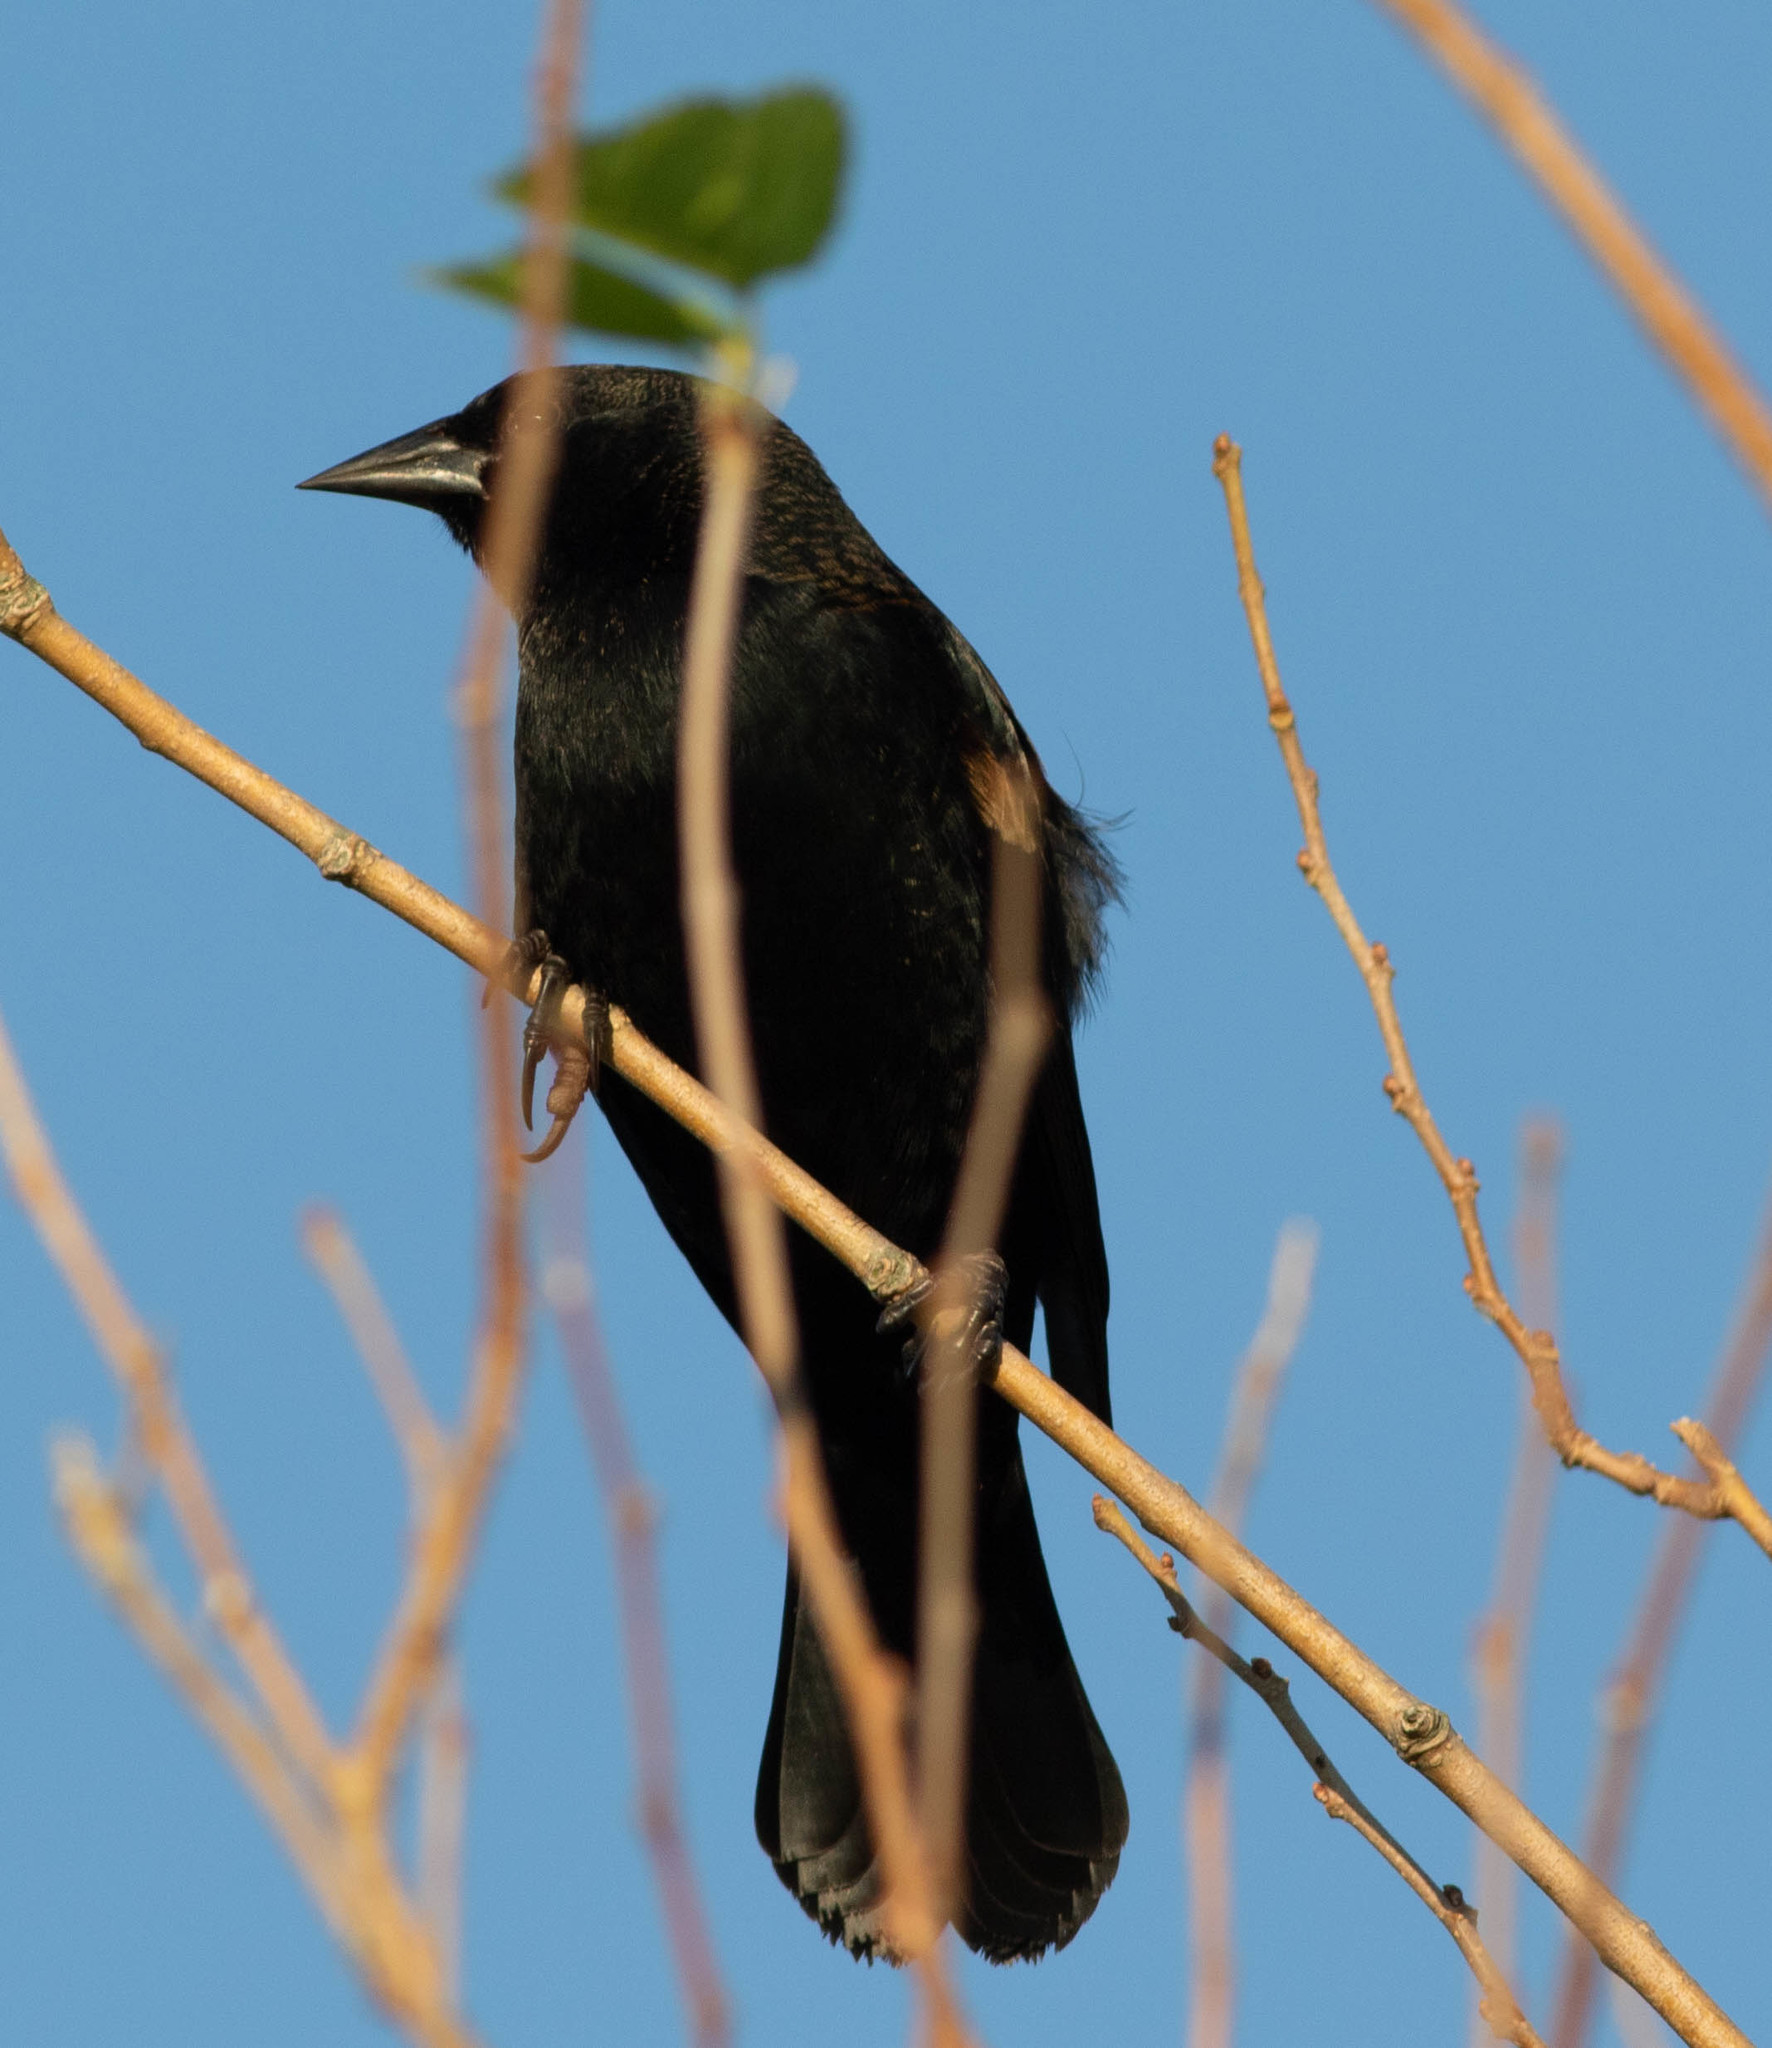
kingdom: Animalia
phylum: Chordata
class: Aves
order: Passeriformes
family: Icteridae
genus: Agelaius
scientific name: Agelaius phoeniceus
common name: Red-winged blackbird
